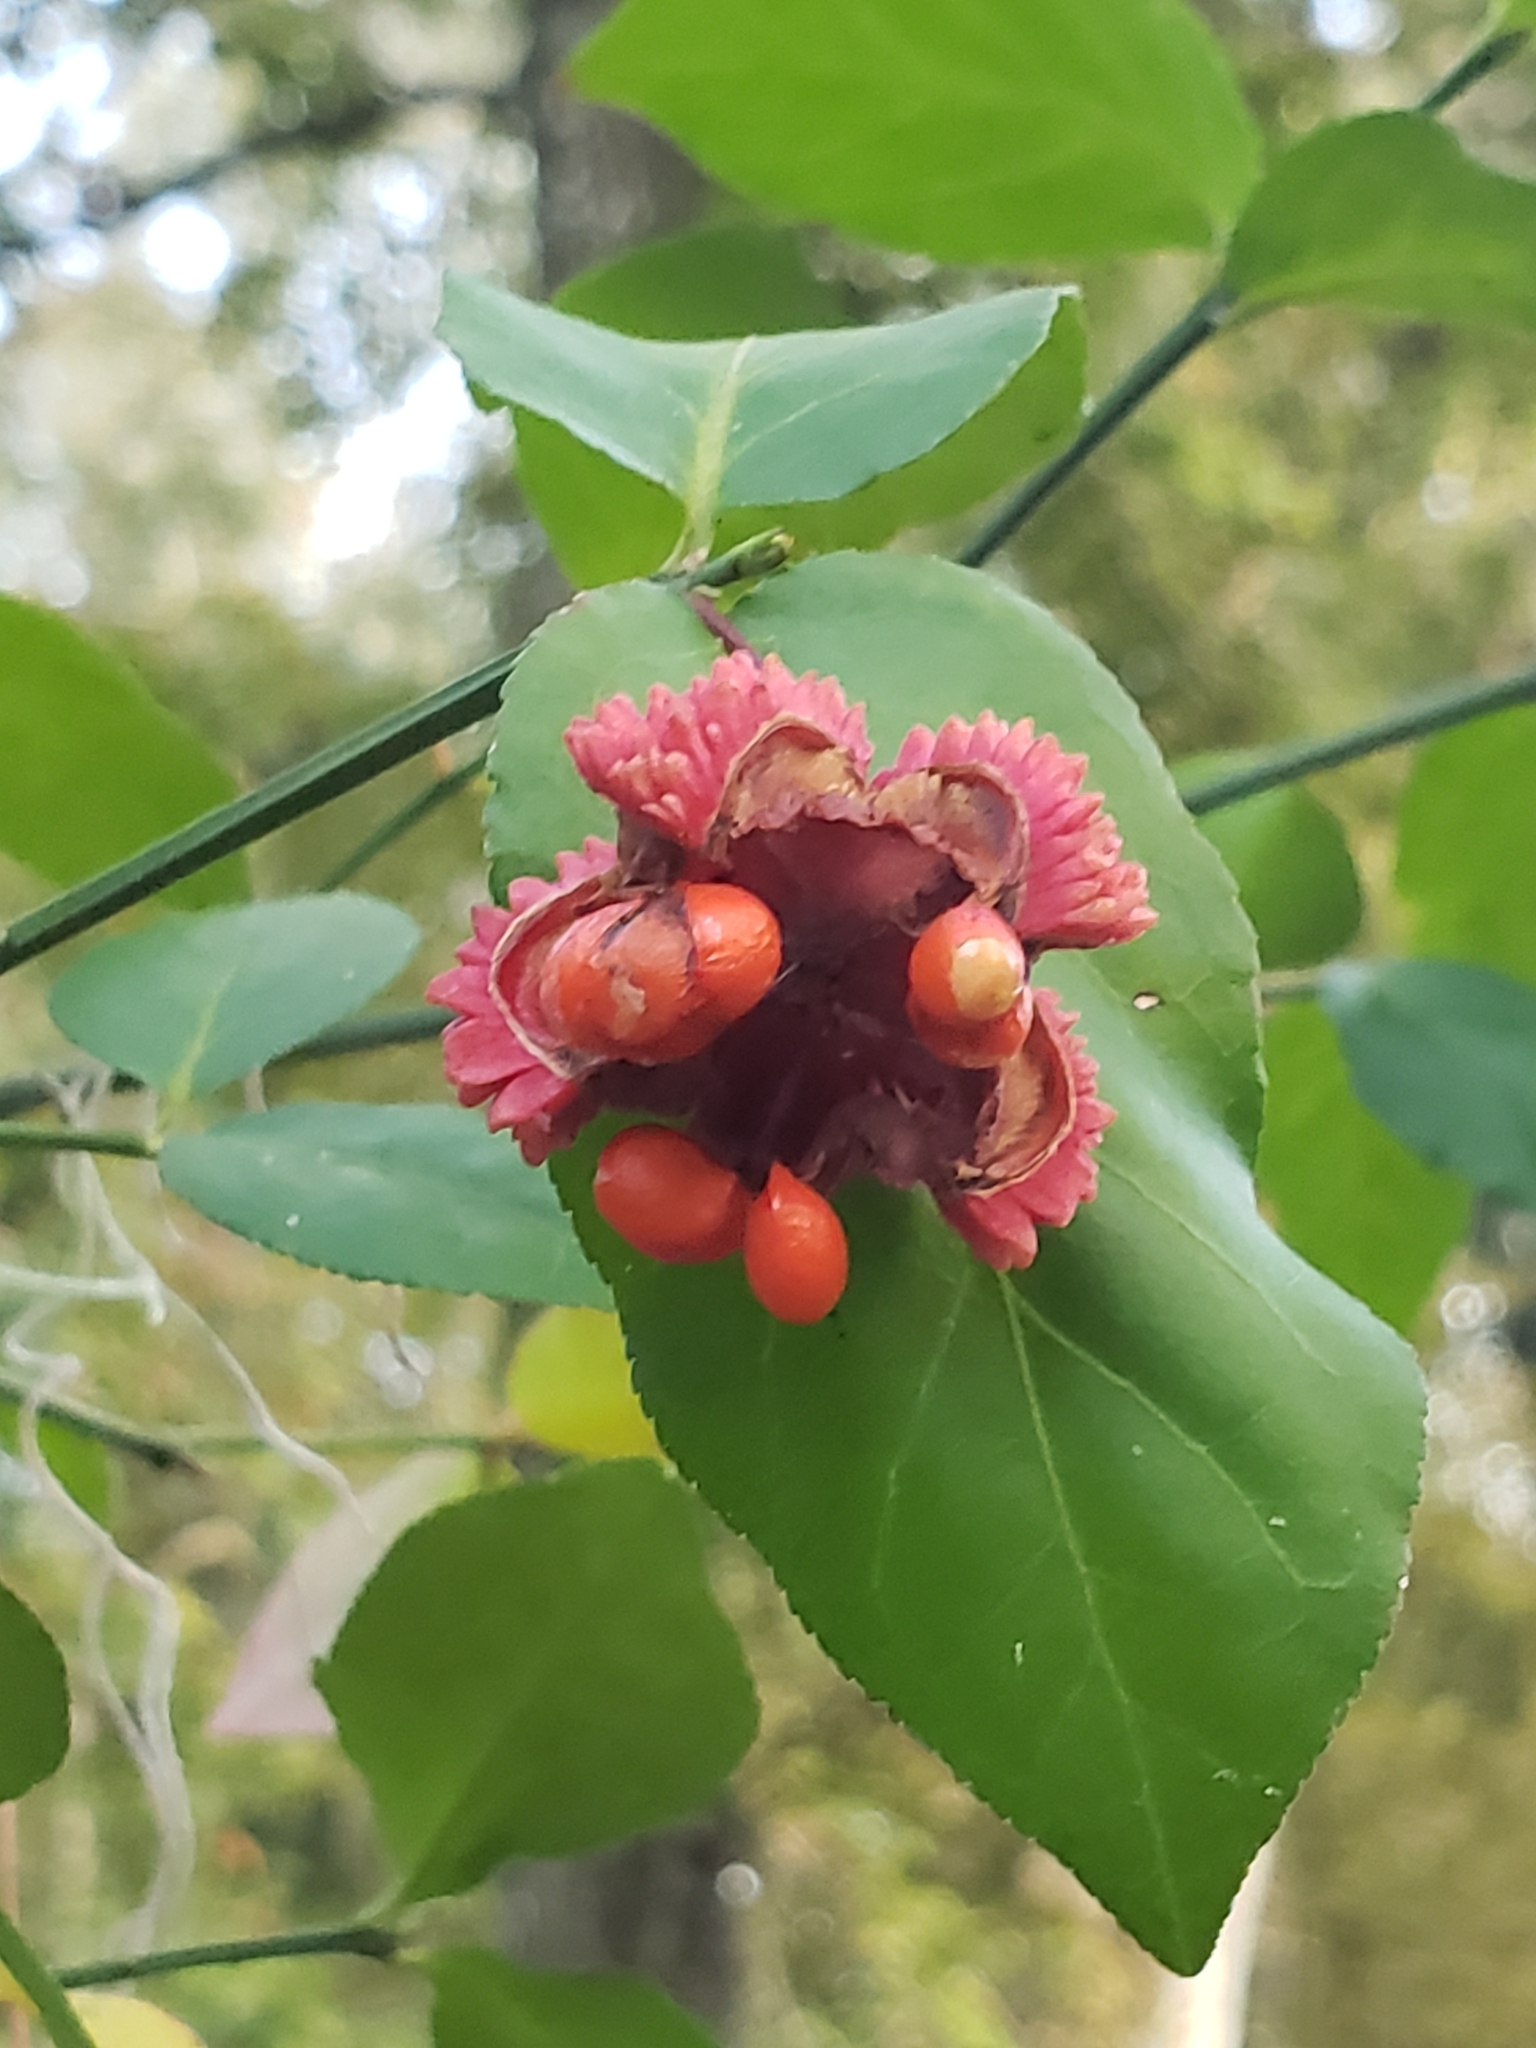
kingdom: Plantae
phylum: Tracheophyta
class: Magnoliopsida
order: Celastrales
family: Celastraceae
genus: Euonymus
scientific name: Euonymus americanus
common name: Bursting-heart
